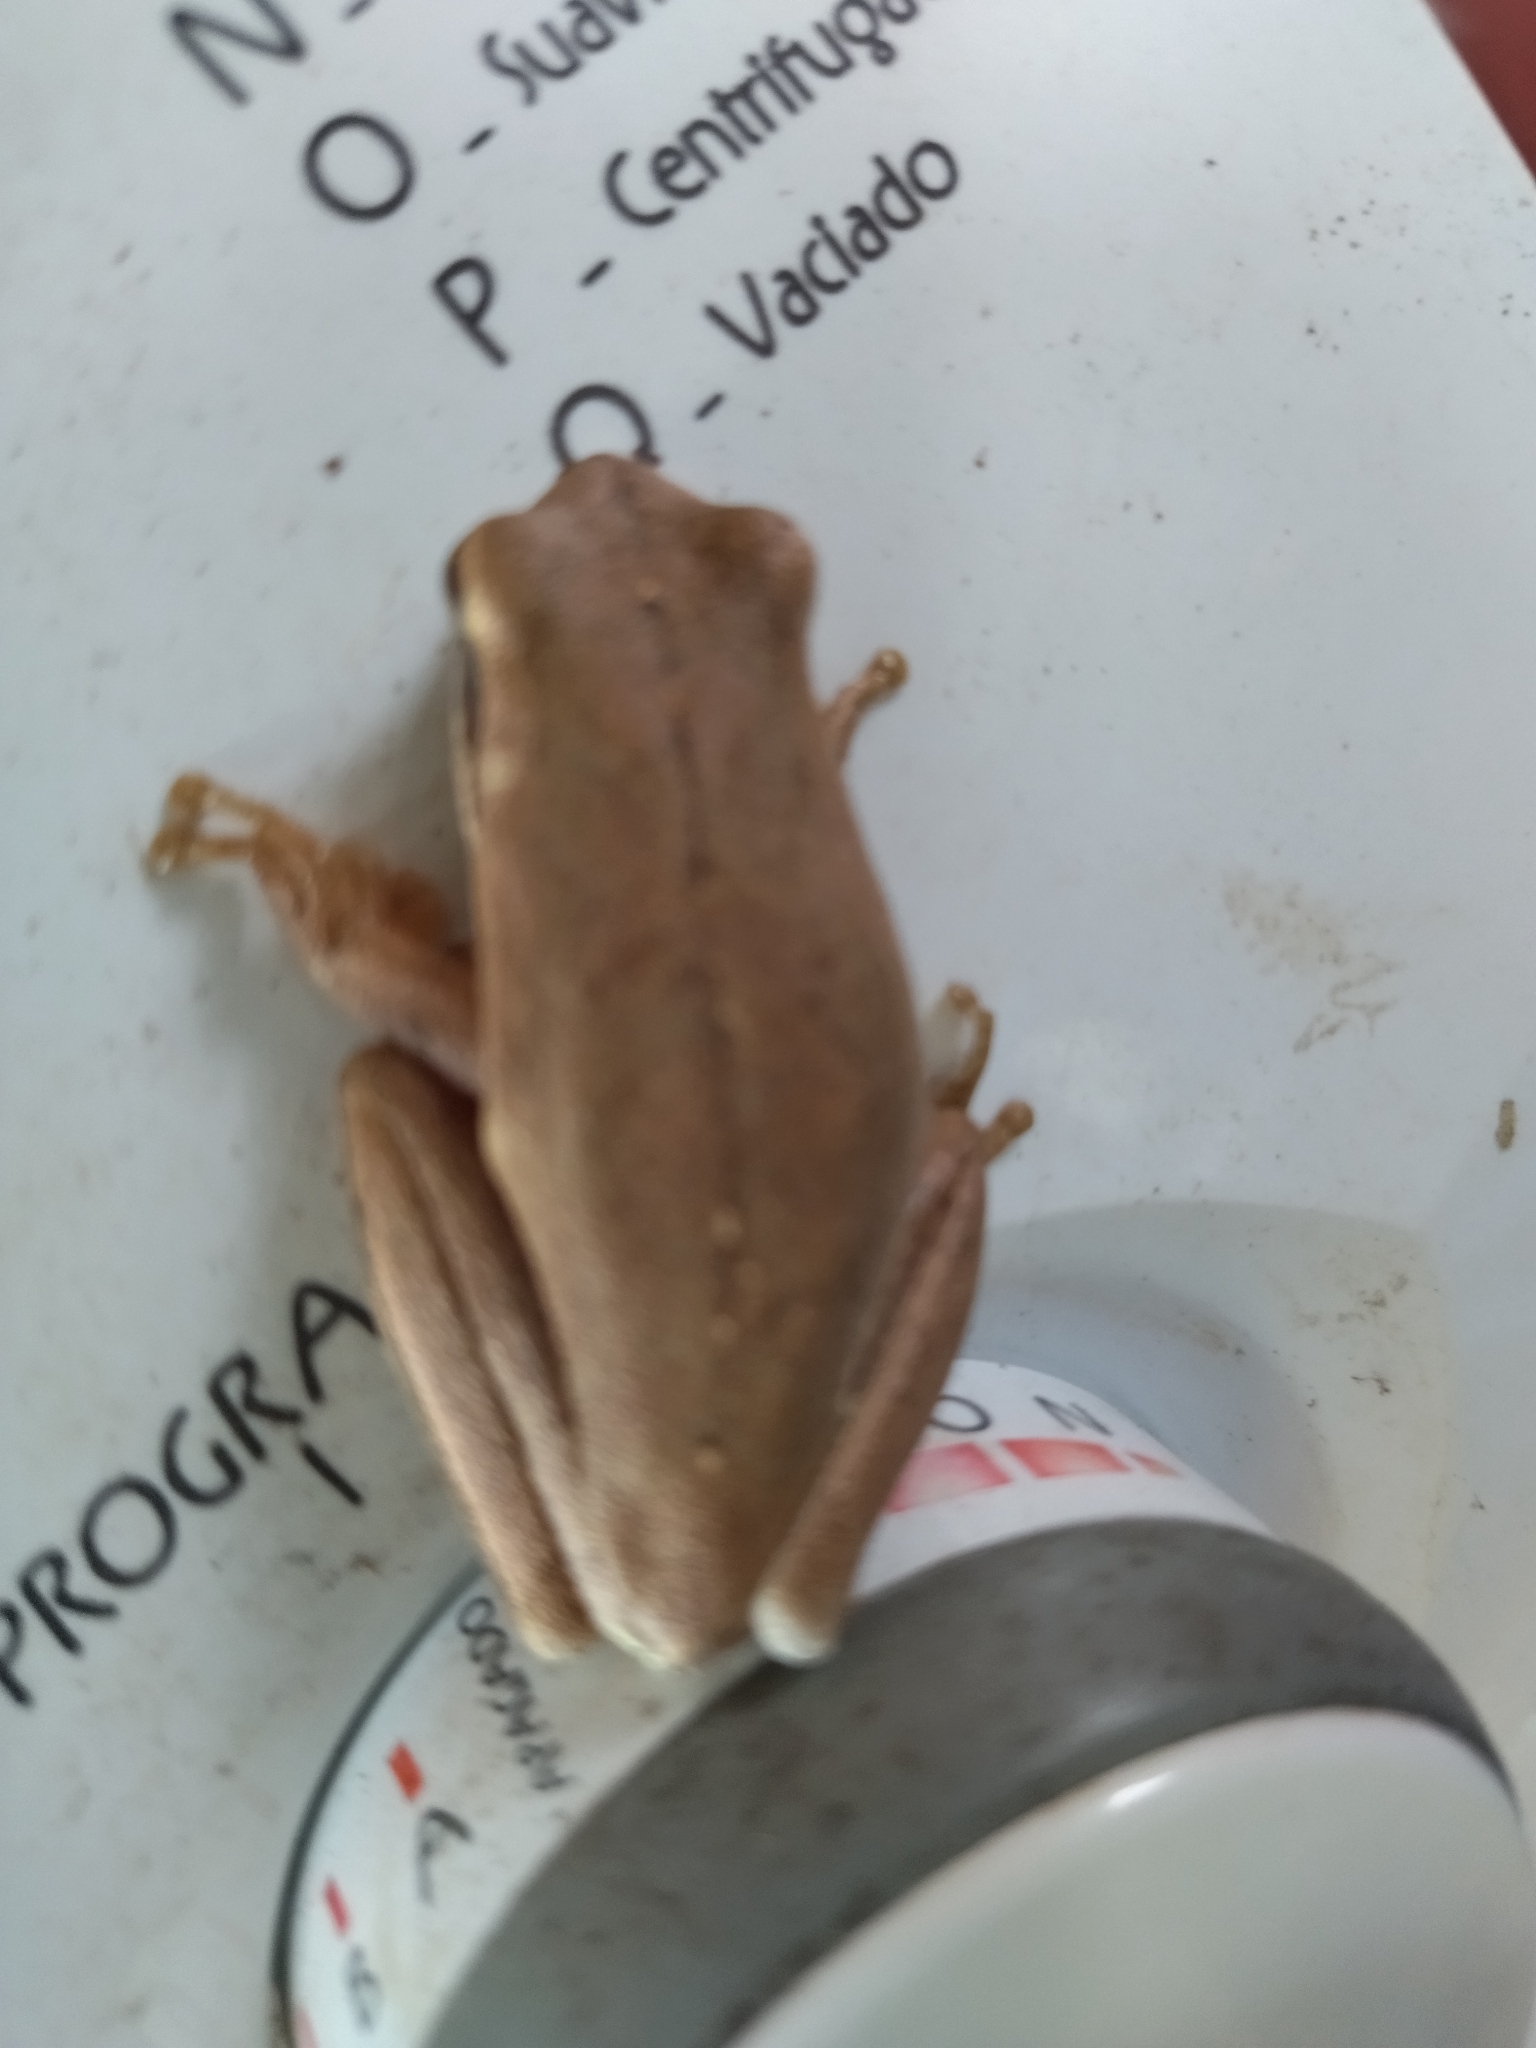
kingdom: Animalia
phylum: Chordata
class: Amphibia
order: Anura
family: Hylidae
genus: Boana
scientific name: Boana pulchella
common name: Montevideo treefrog
